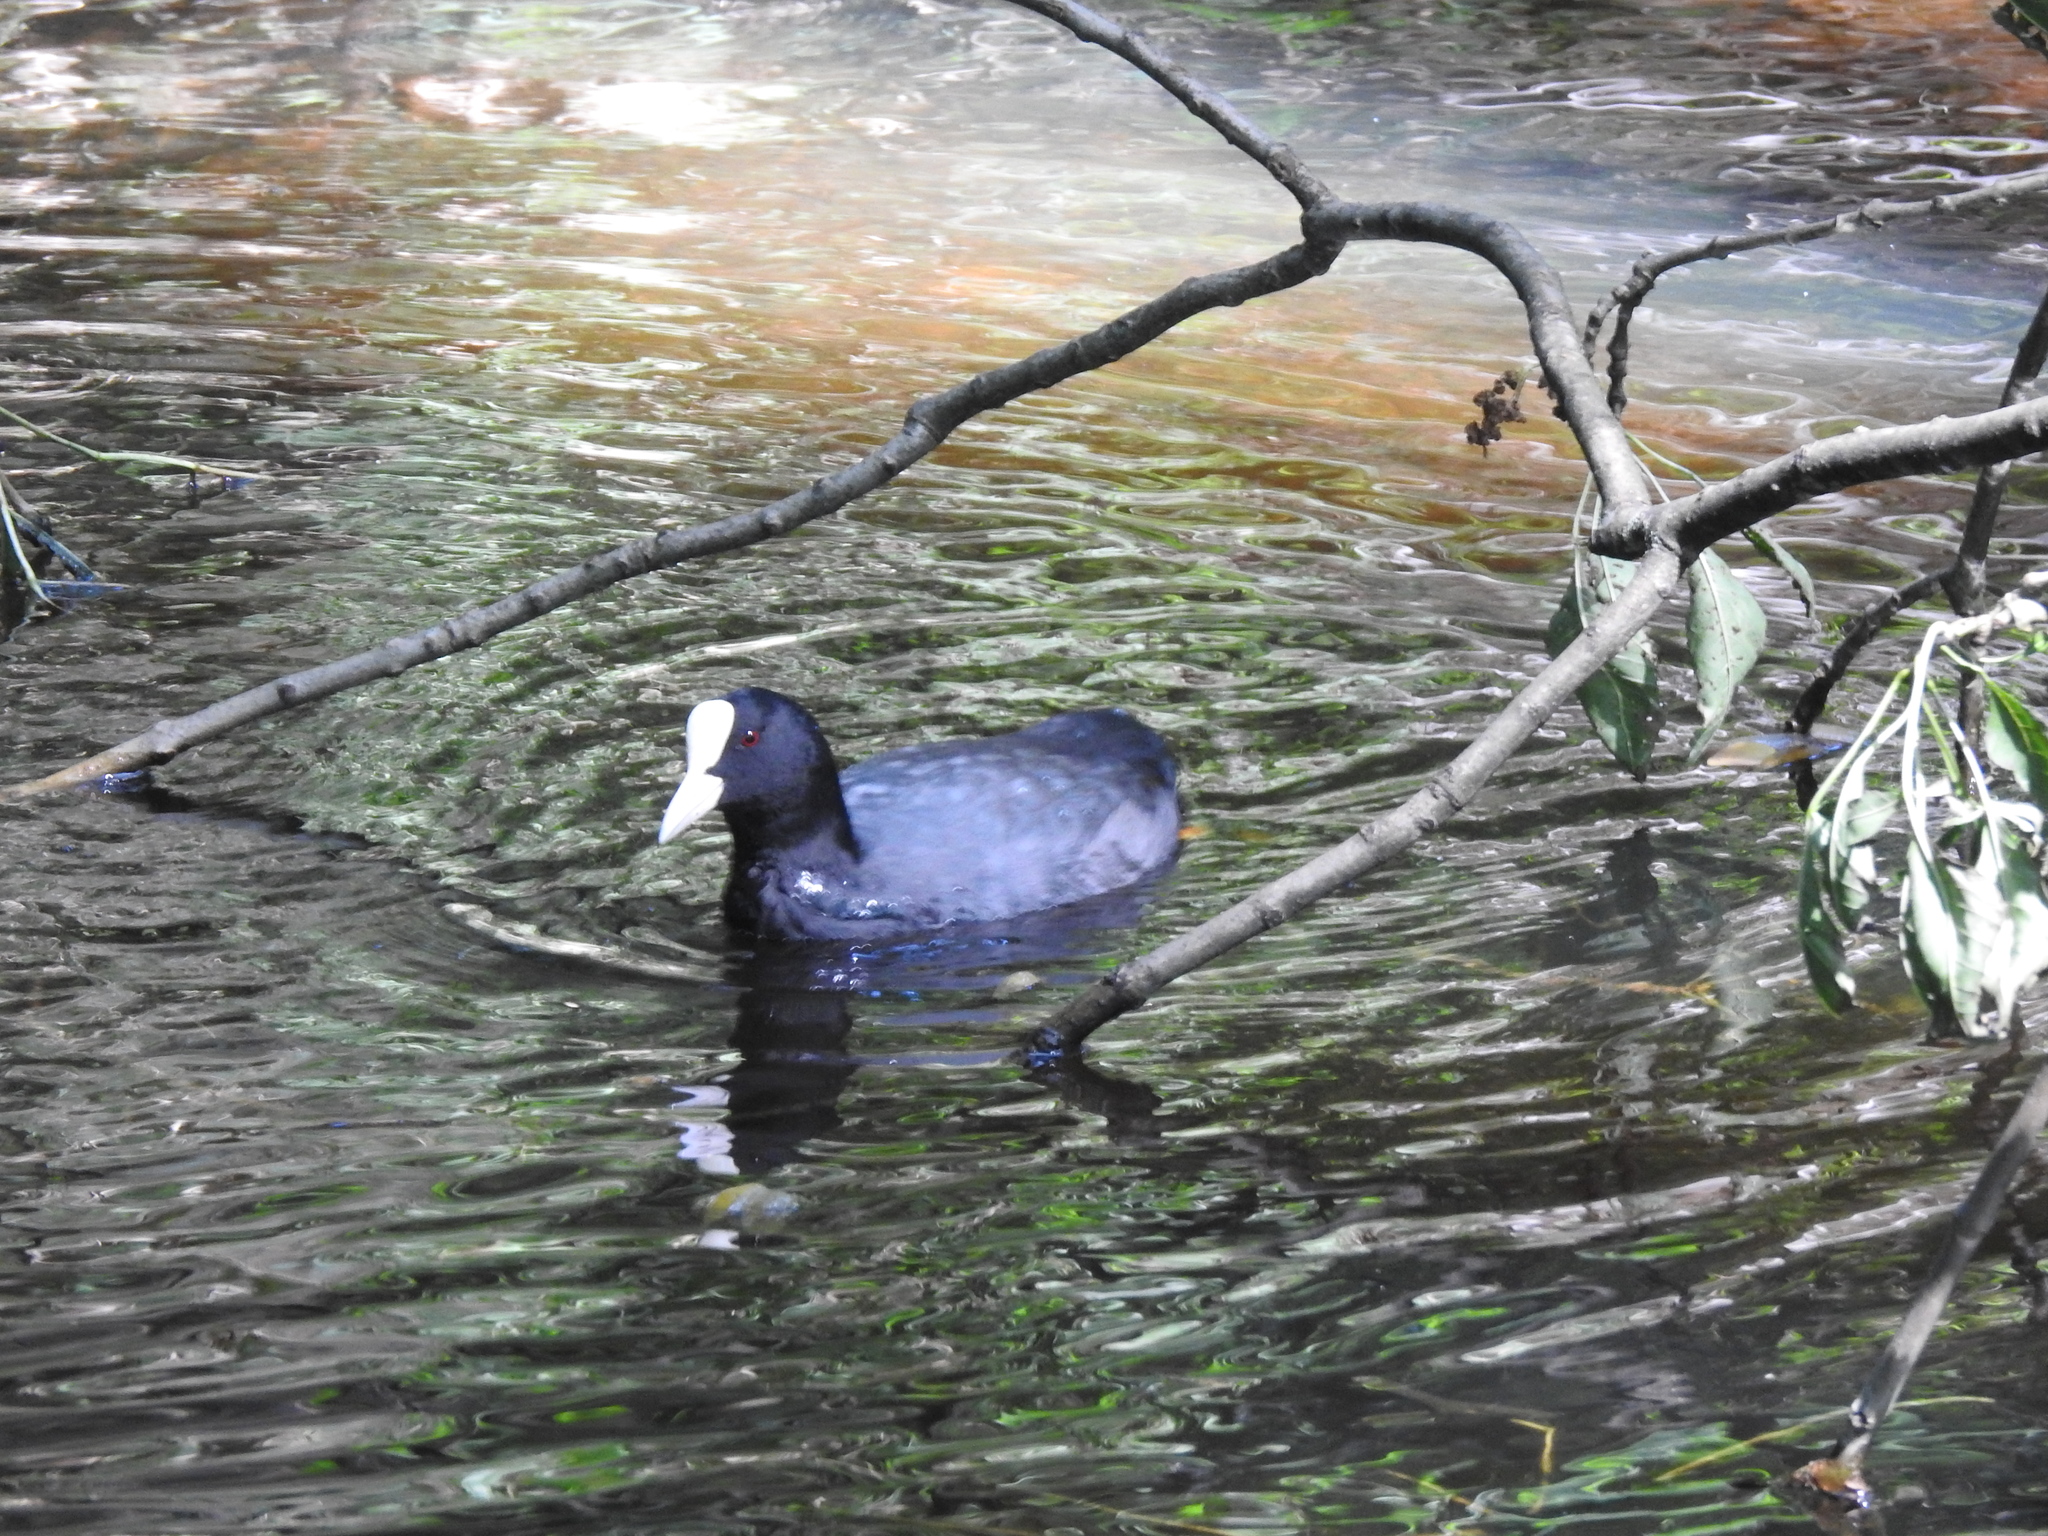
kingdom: Animalia
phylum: Chordata
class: Aves
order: Gruiformes
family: Rallidae
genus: Fulica
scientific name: Fulica atra
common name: Eurasian coot
